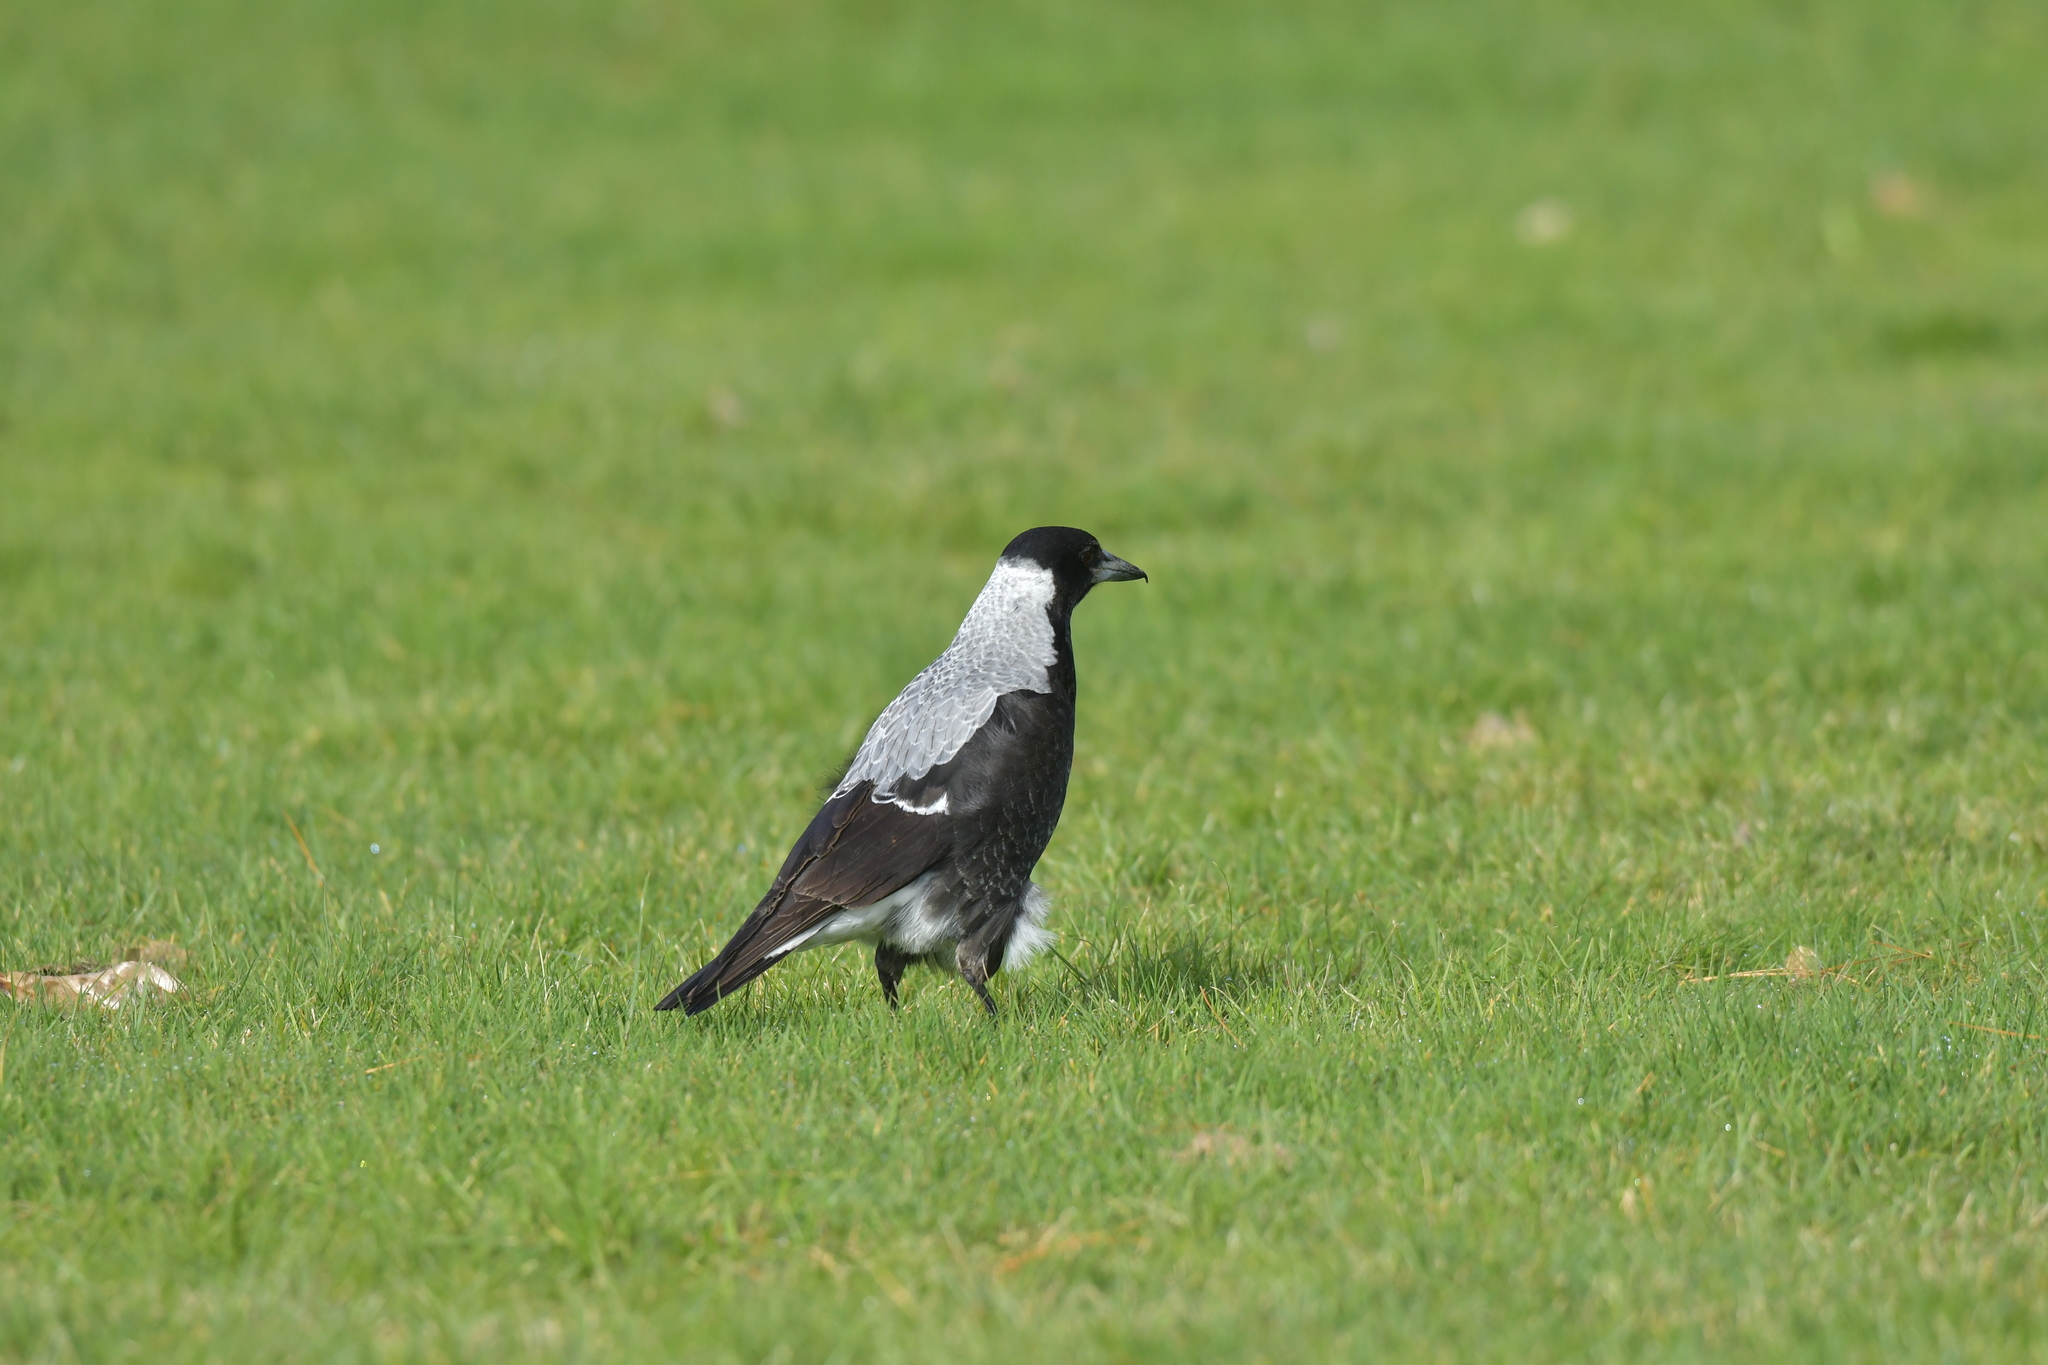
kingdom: Animalia
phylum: Chordata
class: Aves
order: Passeriformes
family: Cracticidae
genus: Gymnorhina
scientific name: Gymnorhina tibicen
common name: Australian magpie
